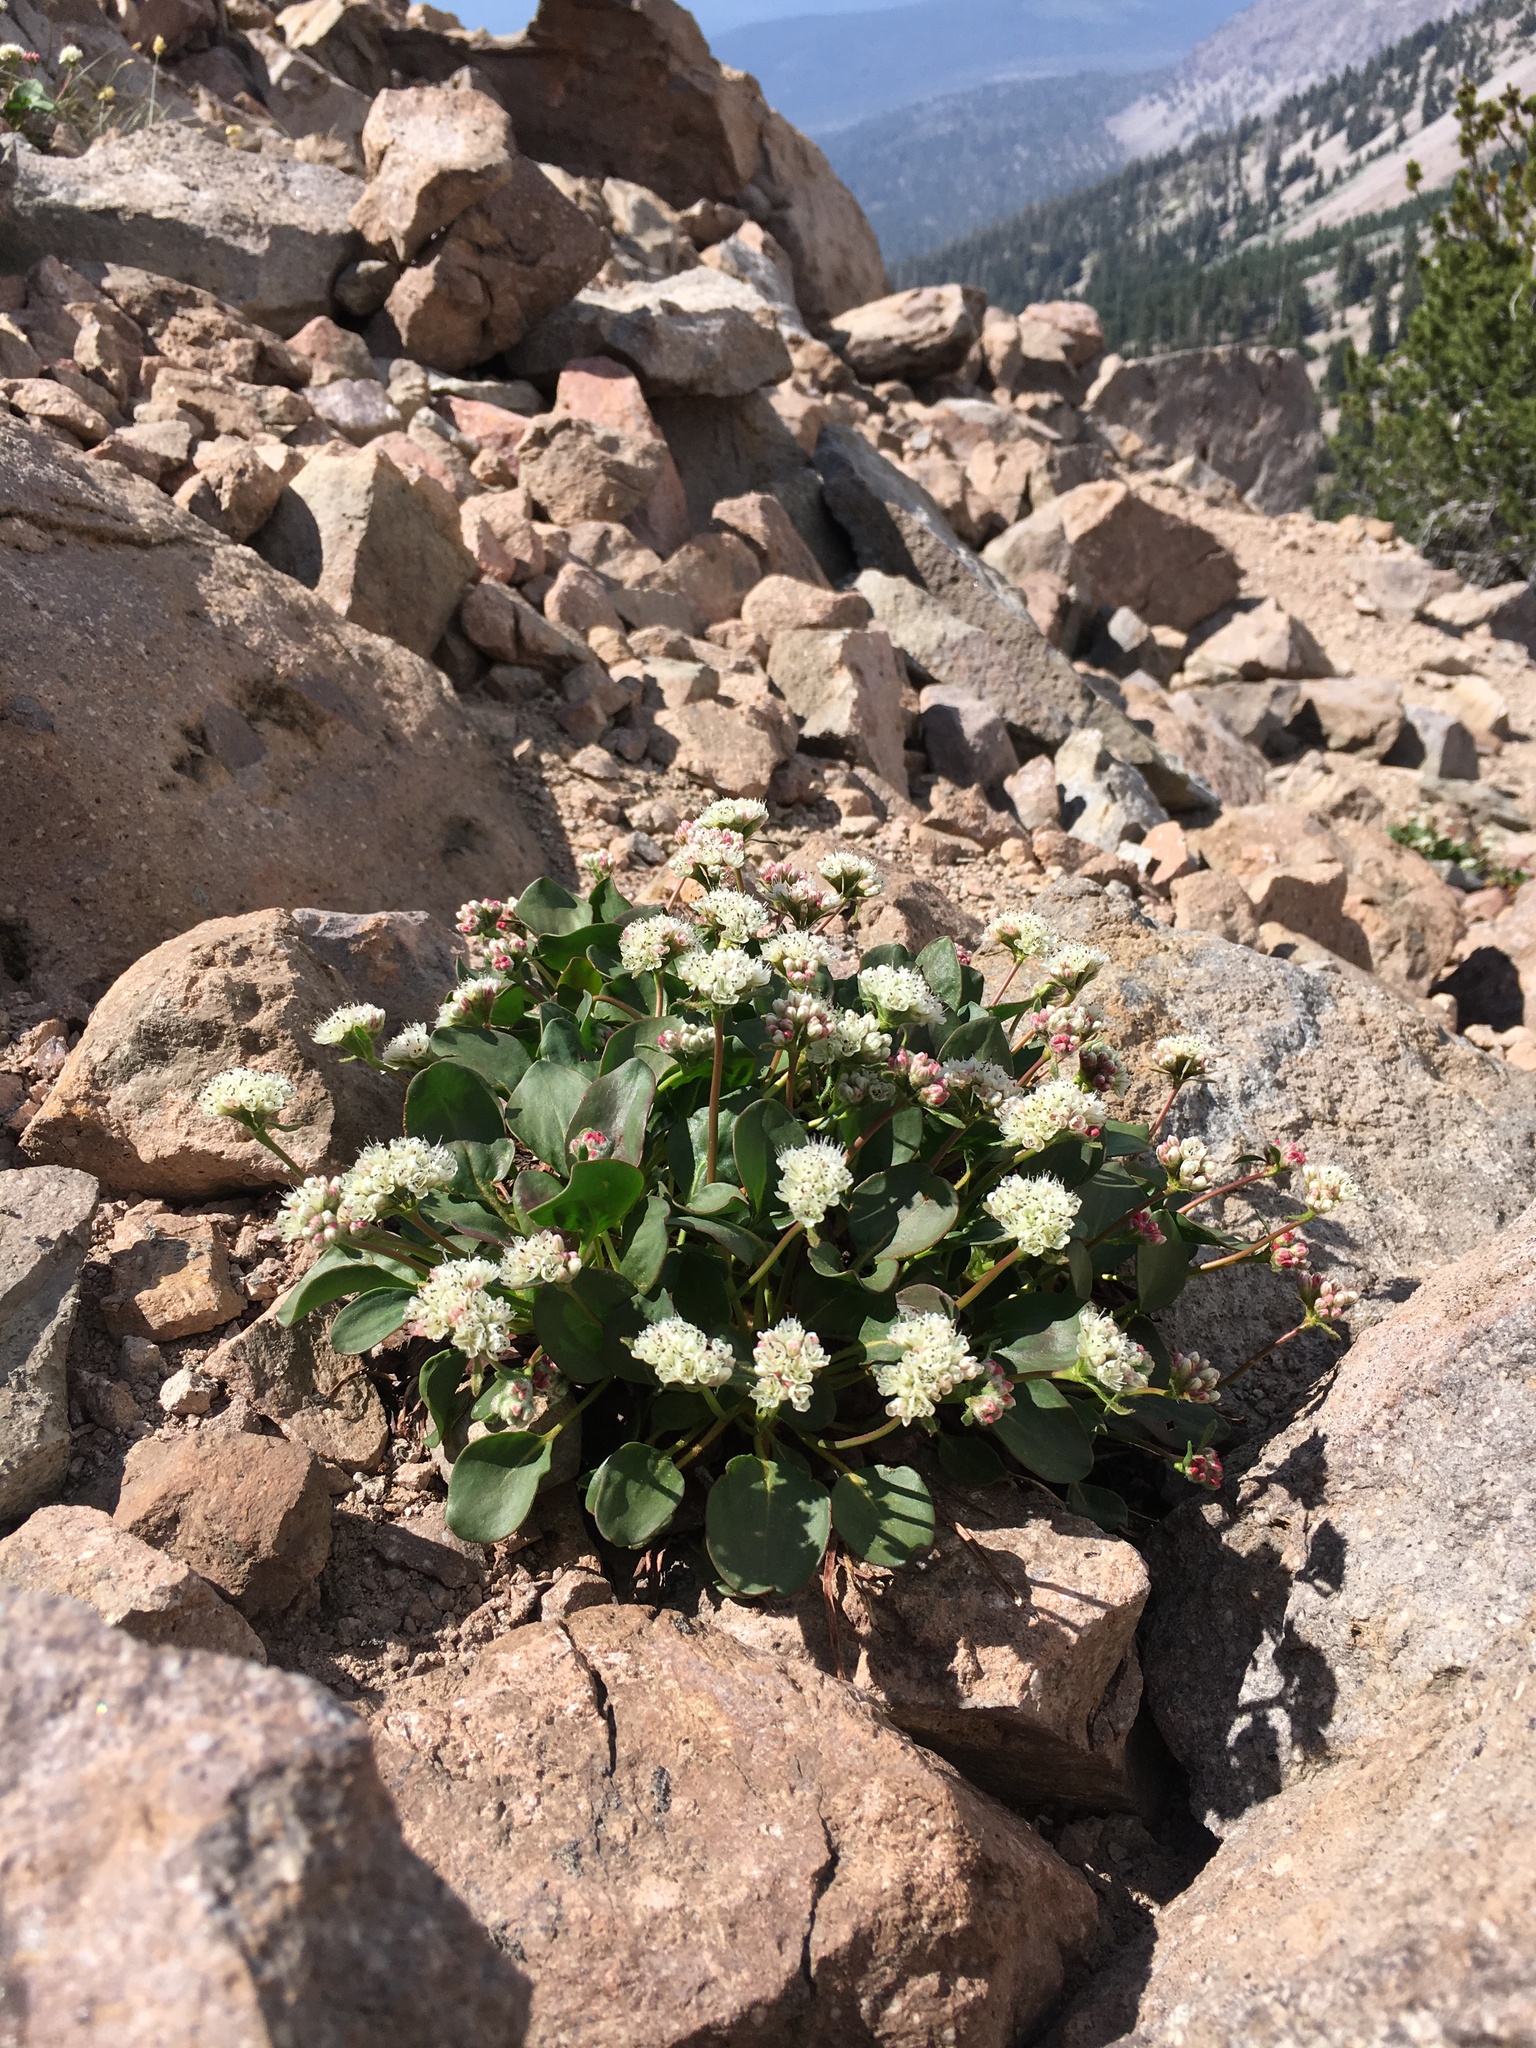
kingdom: Plantae
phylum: Tracheophyta
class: Magnoliopsida
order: Caryophyllales
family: Polygonaceae
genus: Eriogonum
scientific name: Eriogonum pyrolifolium
